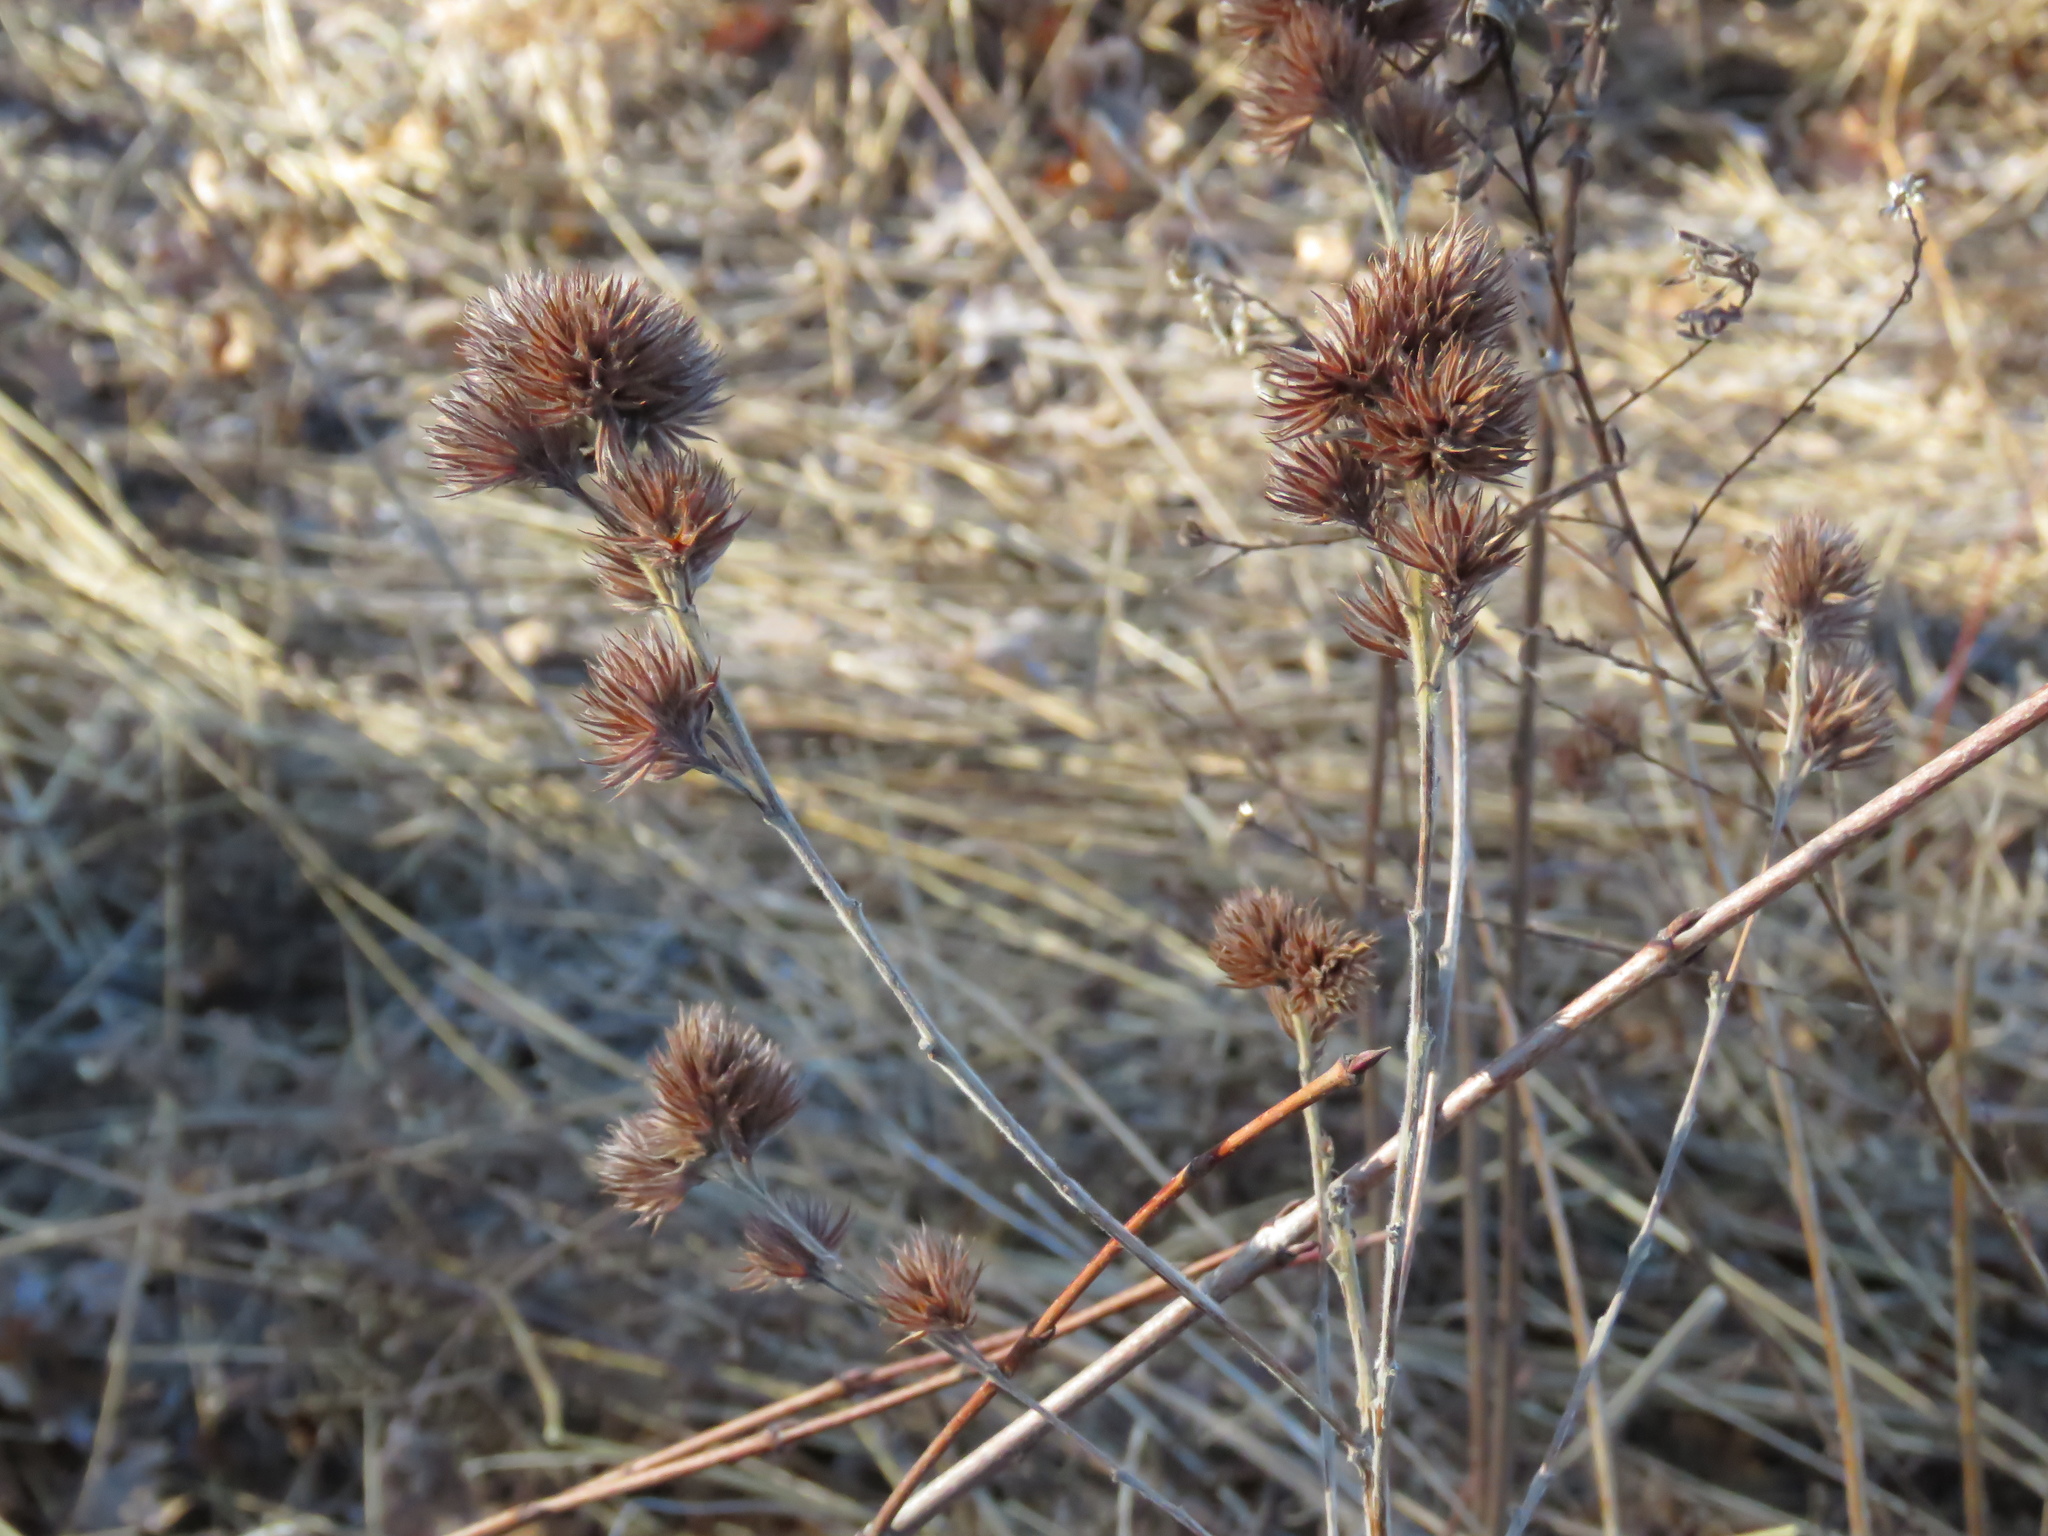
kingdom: Plantae
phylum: Tracheophyta
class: Magnoliopsida
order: Fabales
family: Fabaceae
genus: Lespedeza
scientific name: Lespedeza capitata
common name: Dusty clover
